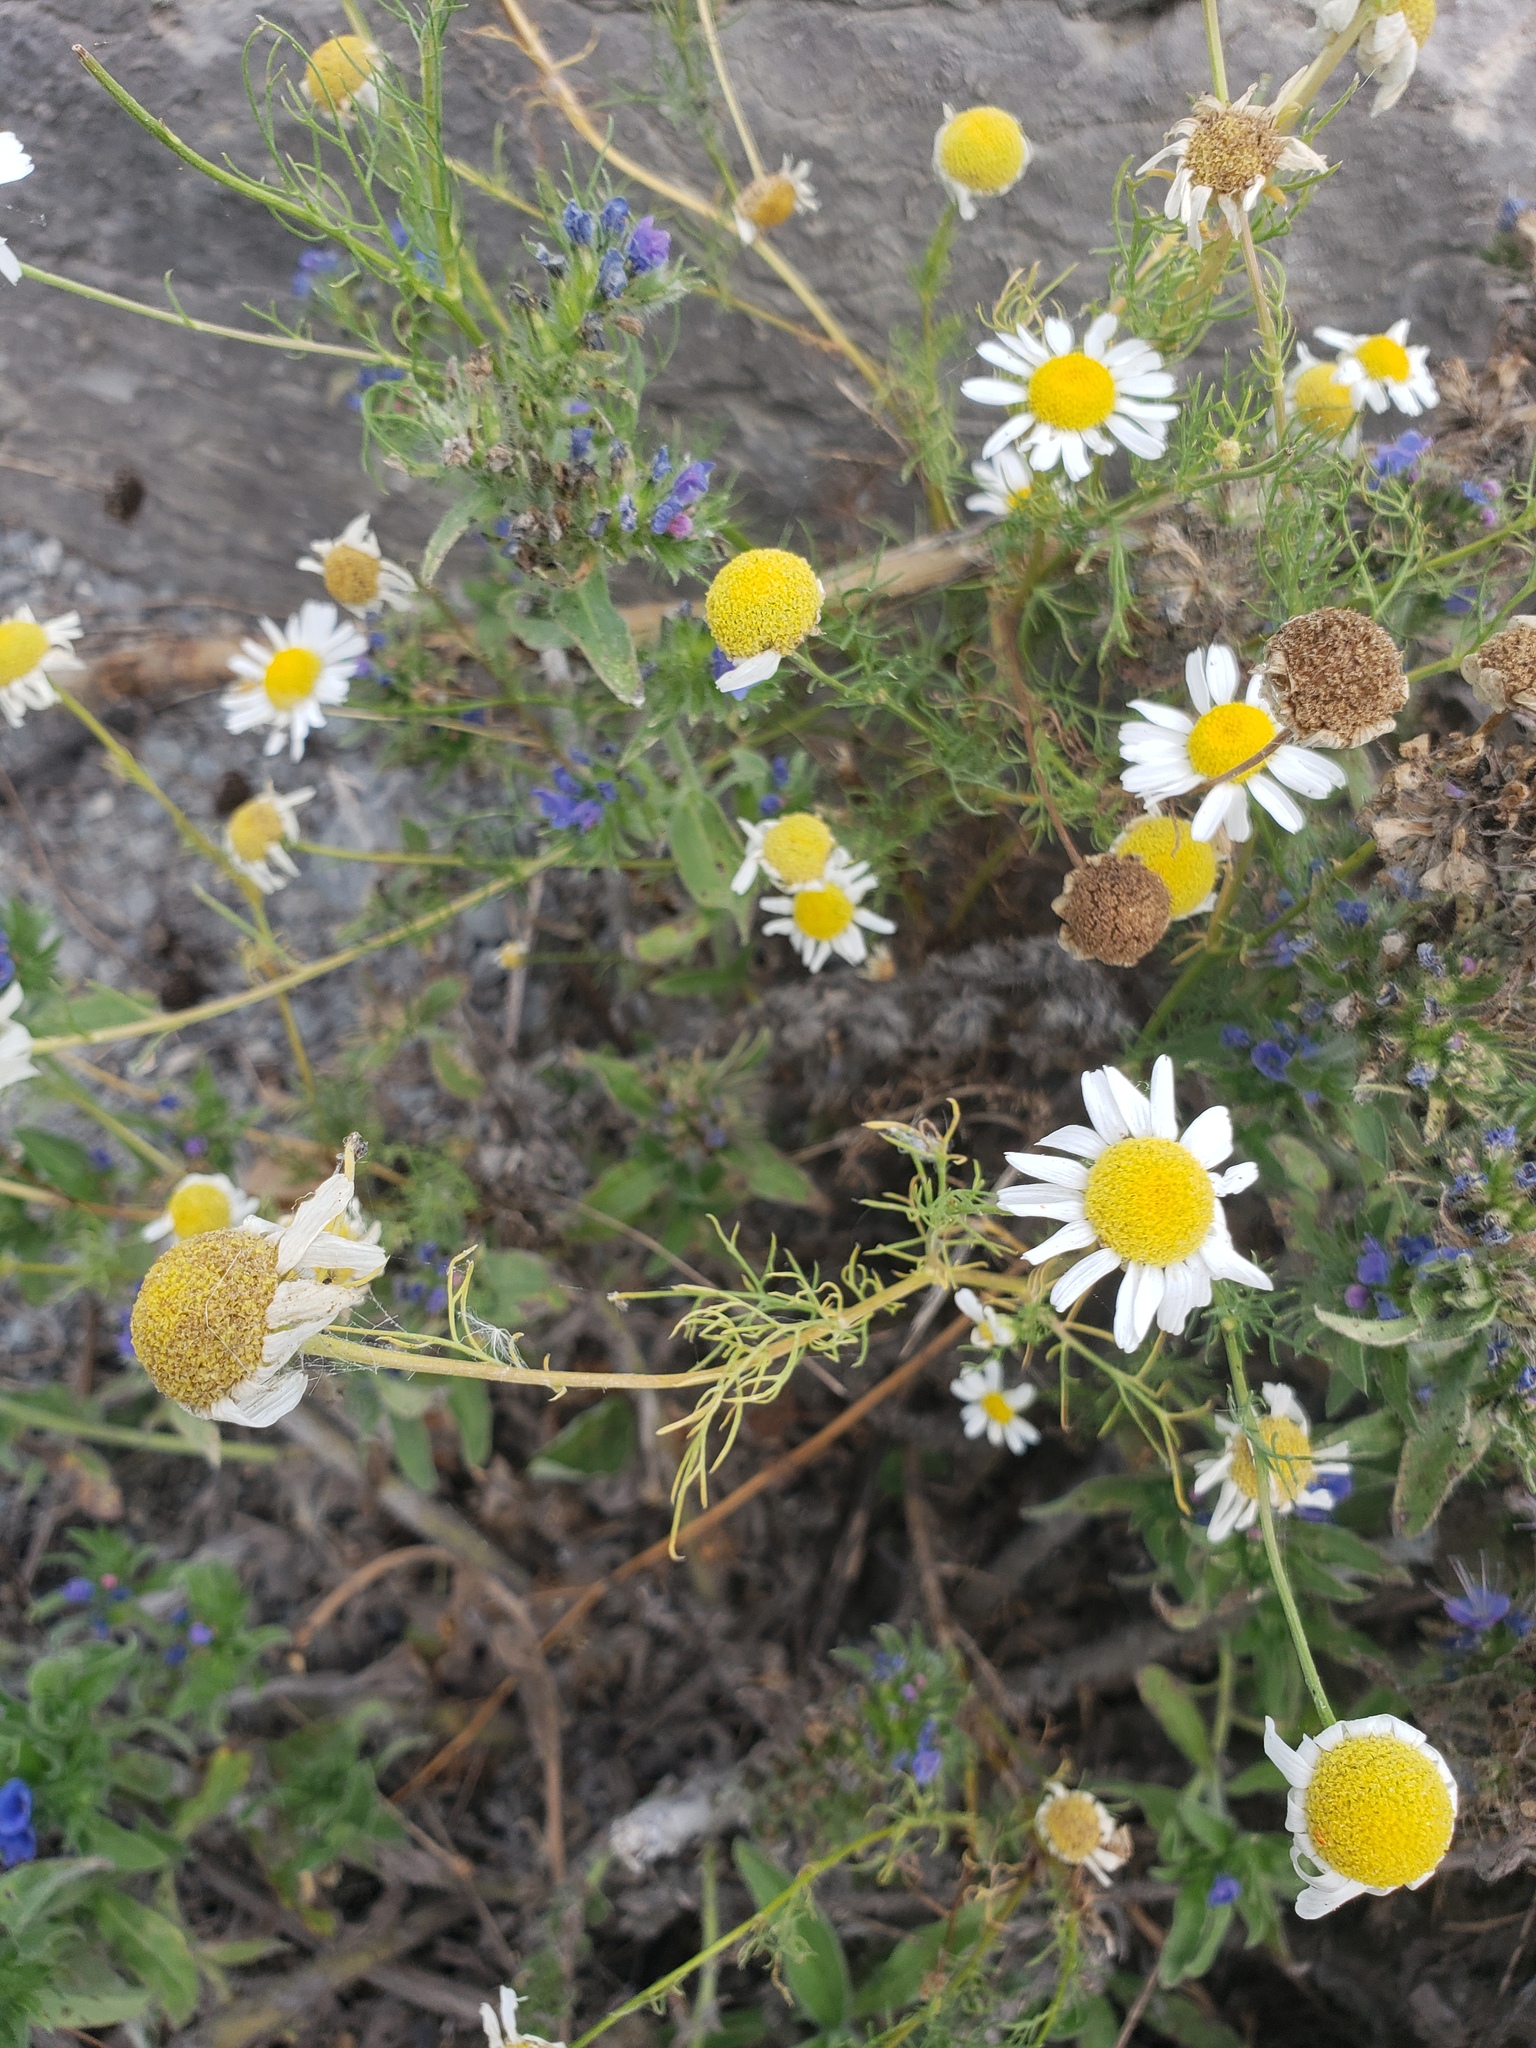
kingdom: Plantae
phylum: Tracheophyta
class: Magnoliopsida
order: Asterales
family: Asteraceae
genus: Tripleurospermum
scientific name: Tripleurospermum inodorum
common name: Scentless mayweed
